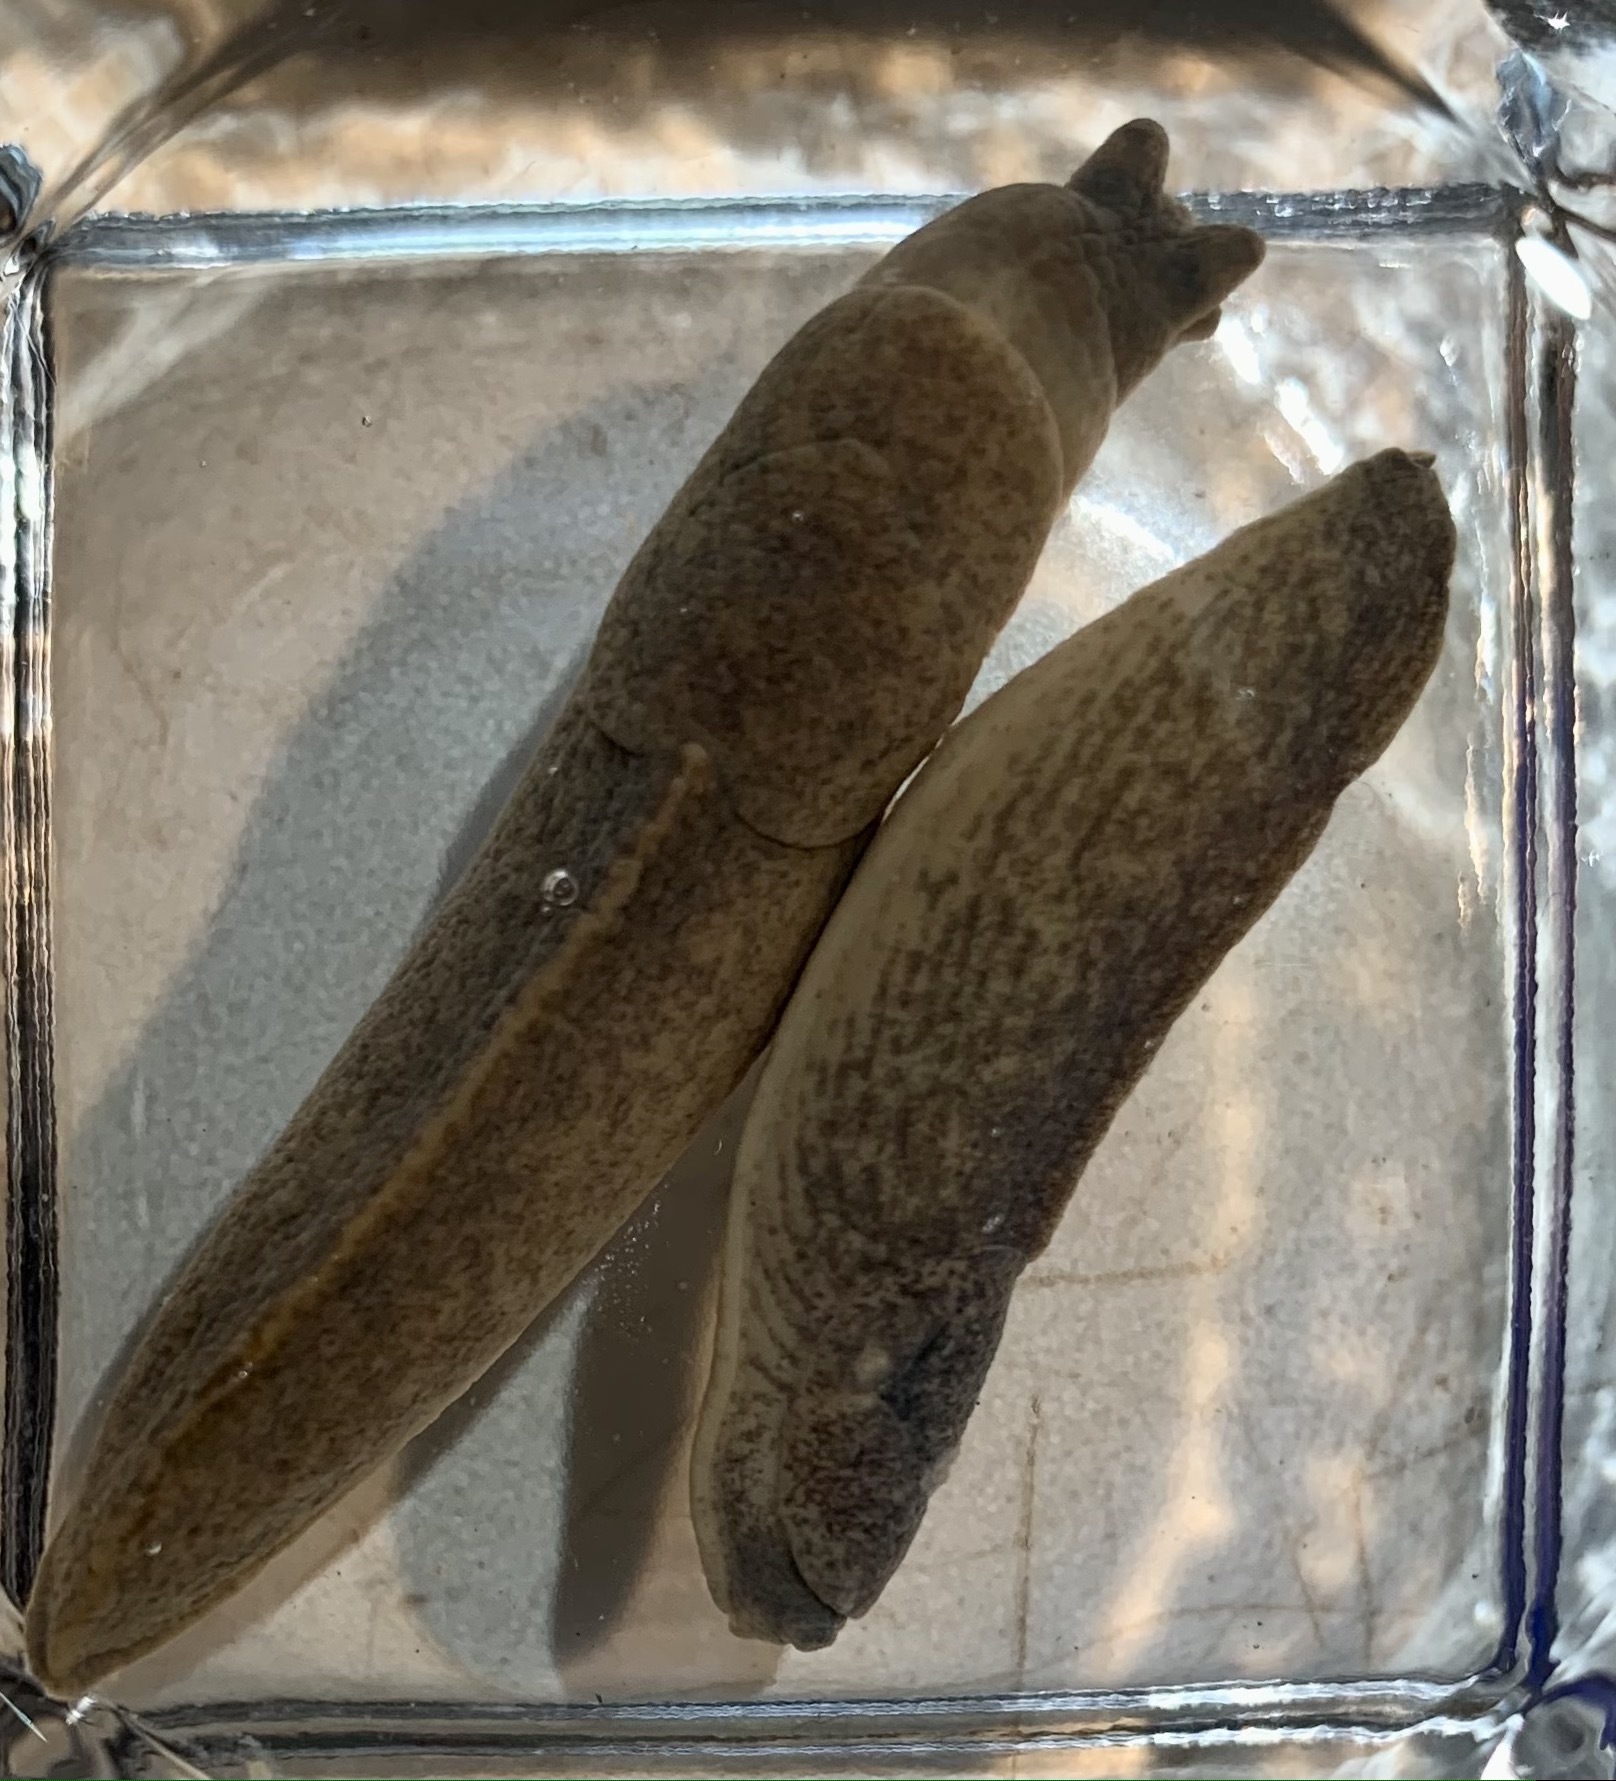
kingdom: Animalia
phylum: Mollusca
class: Gastropoda
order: Stylommatophora
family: Milacidae
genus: Tandonia
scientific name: Tandonia sowerbyi
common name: Keeled slug
